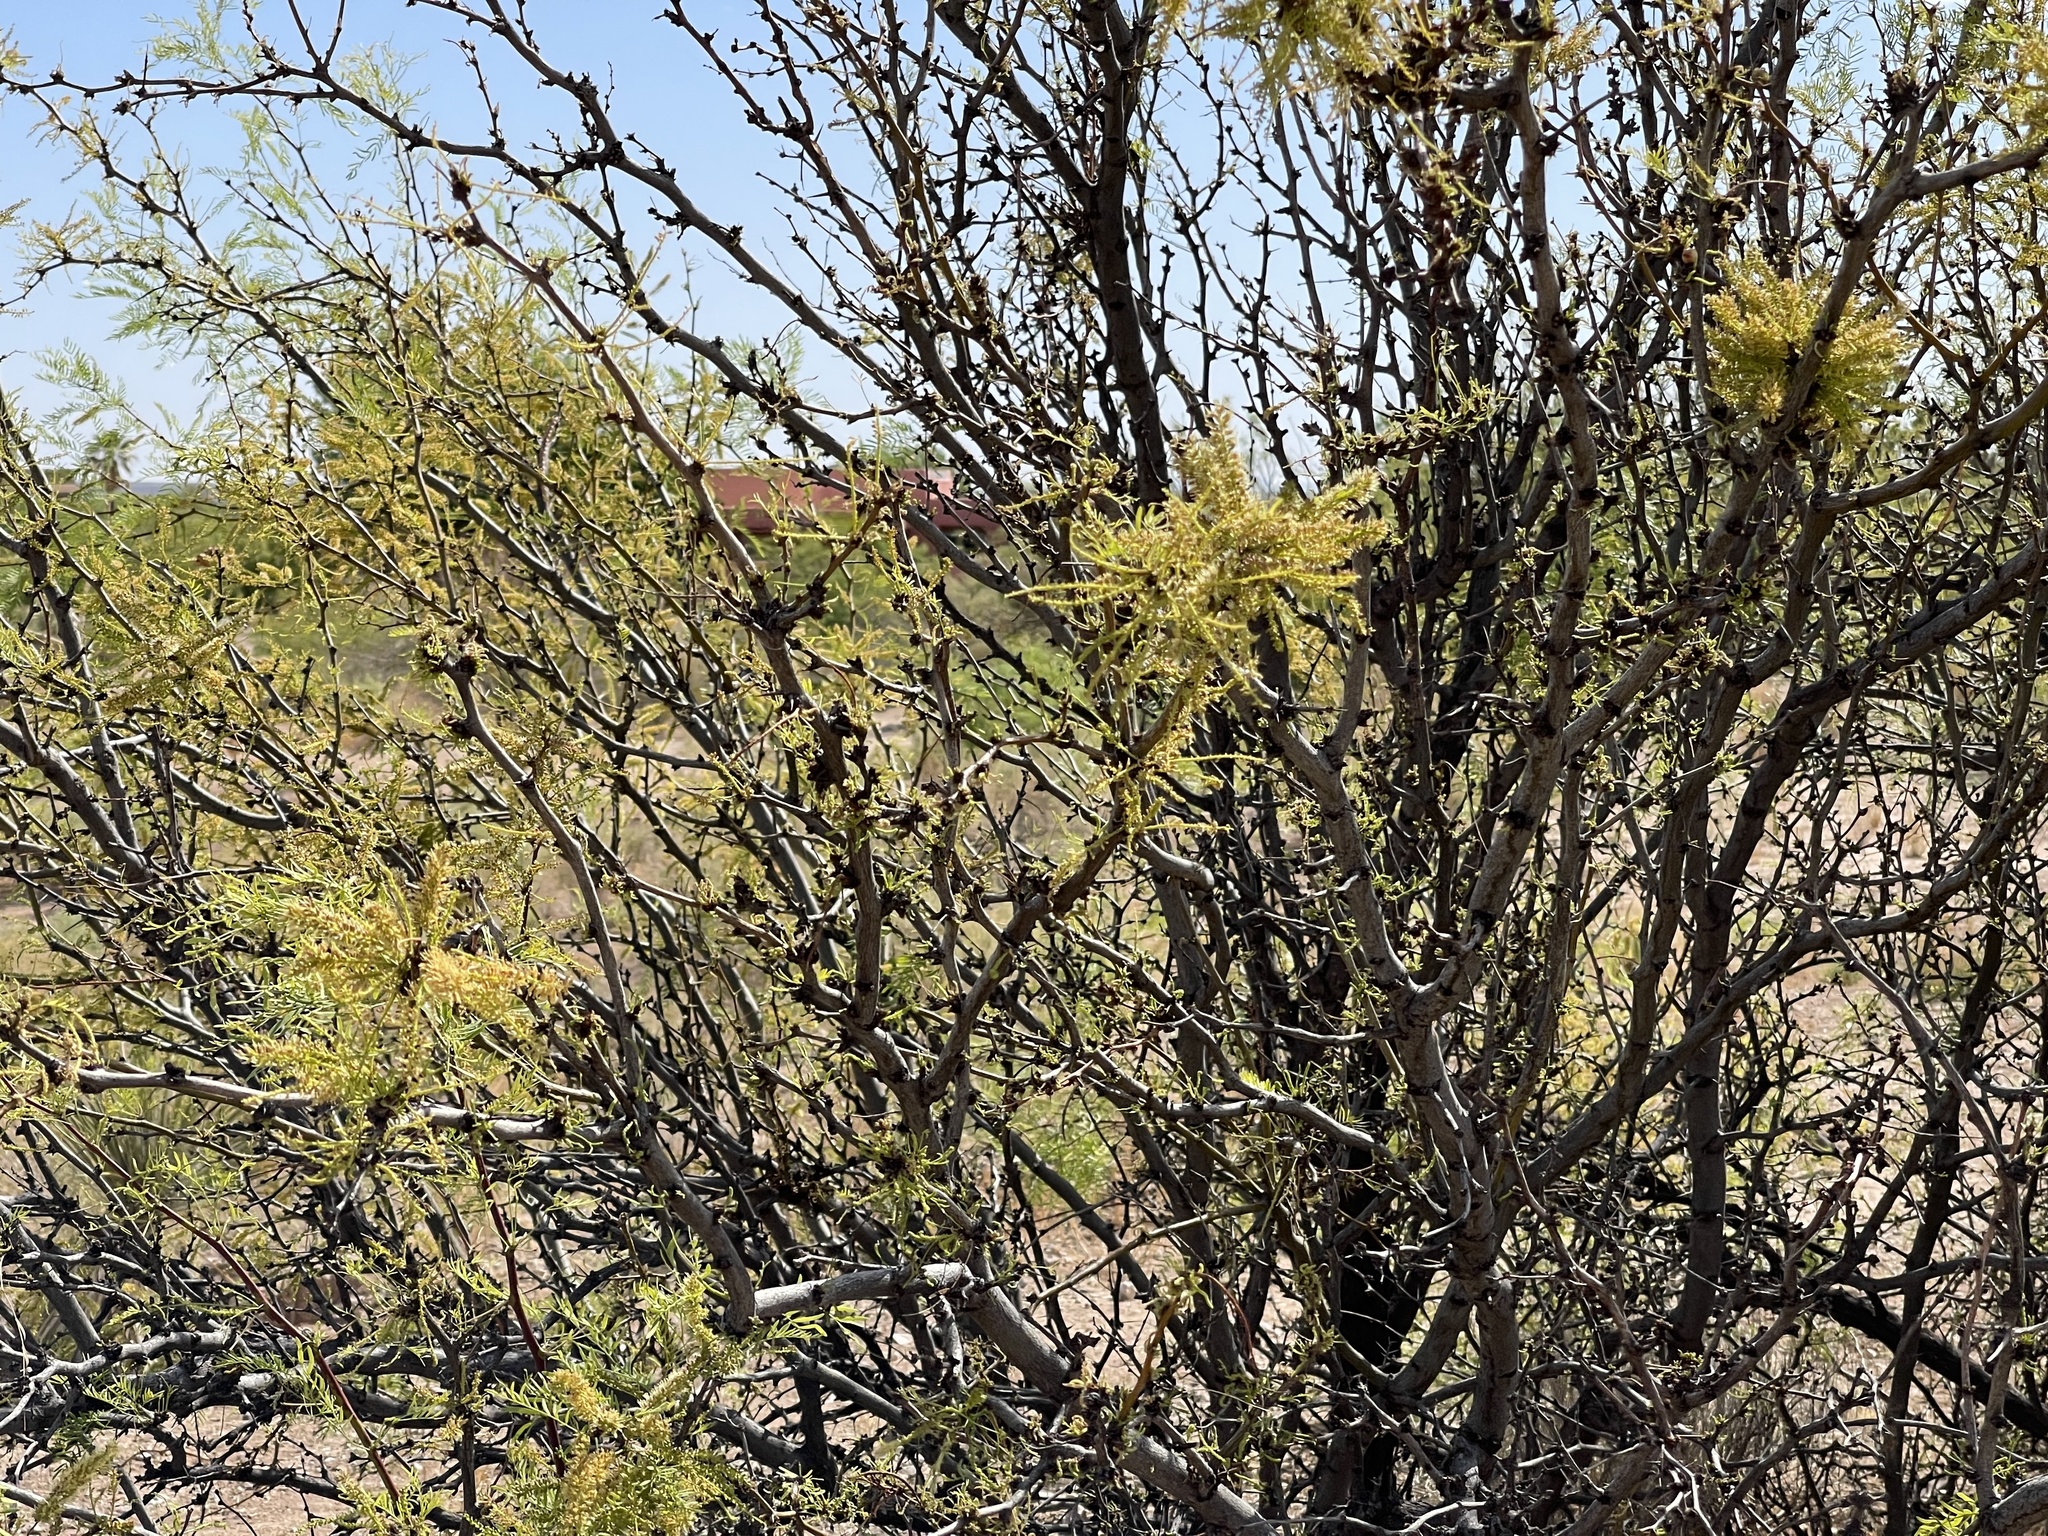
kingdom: Plantae
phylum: Tracheophyta
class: Magnoliopsida
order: Fabales
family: Fabaceae
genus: Prosopis
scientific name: Prosopis glandulosa
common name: Honey mesquite
